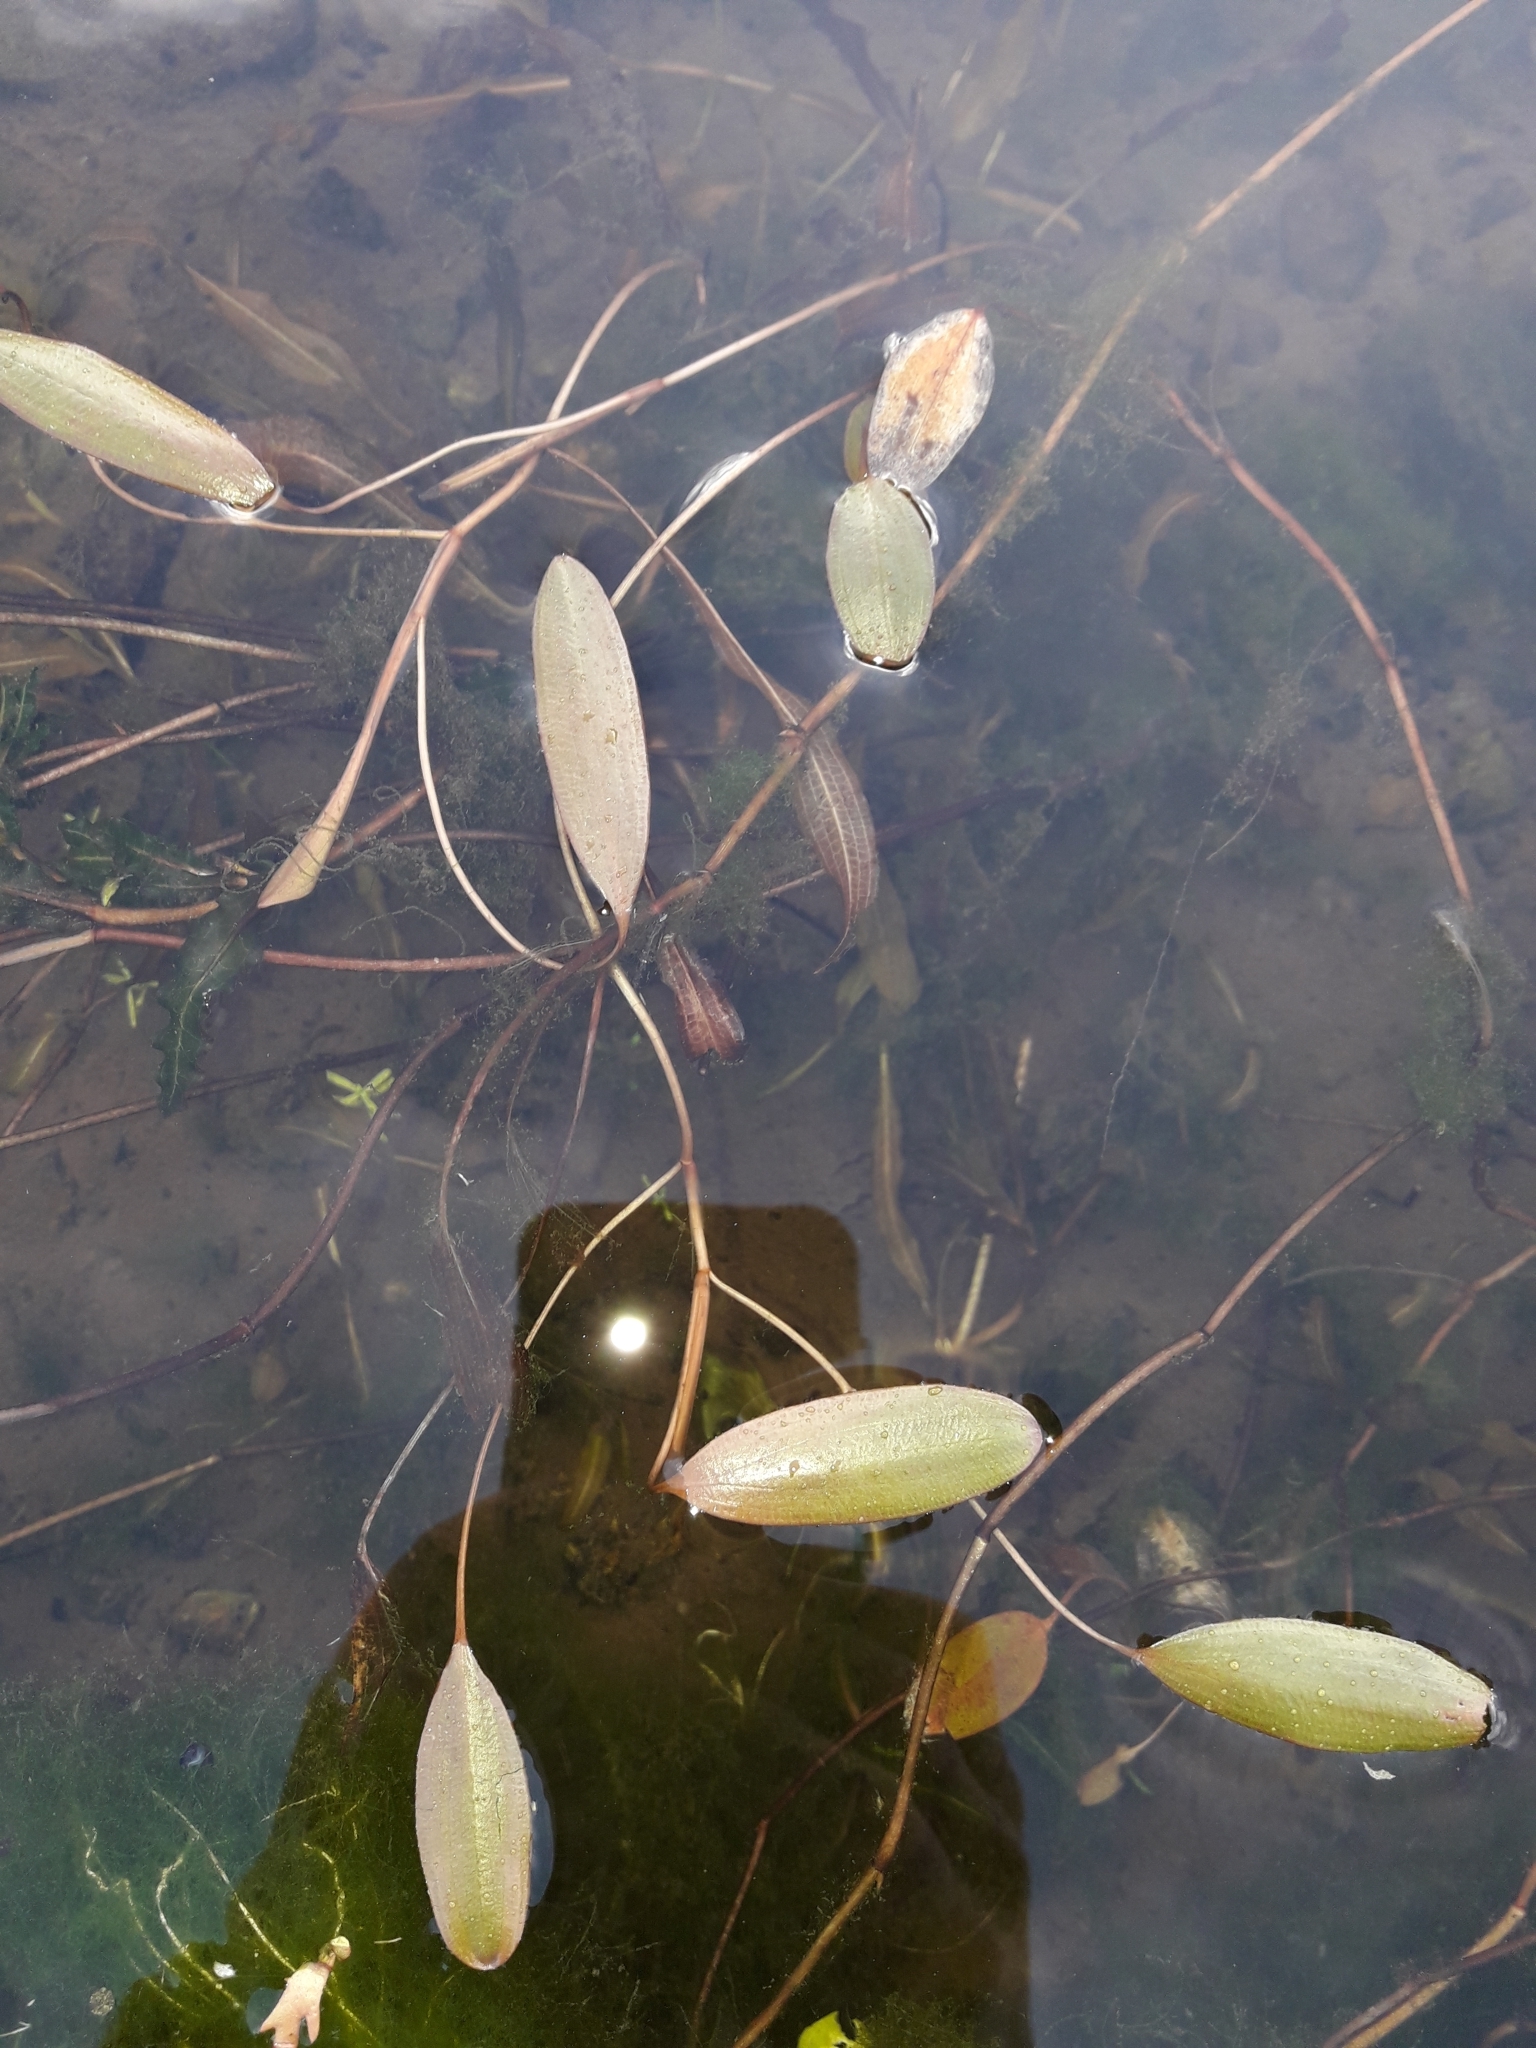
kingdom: Plantae
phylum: Tracheophyta
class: Liliopsida
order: Alismatales
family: Potamogetonaceae
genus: Potamogeton
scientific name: Potamogeton cheesemanii
